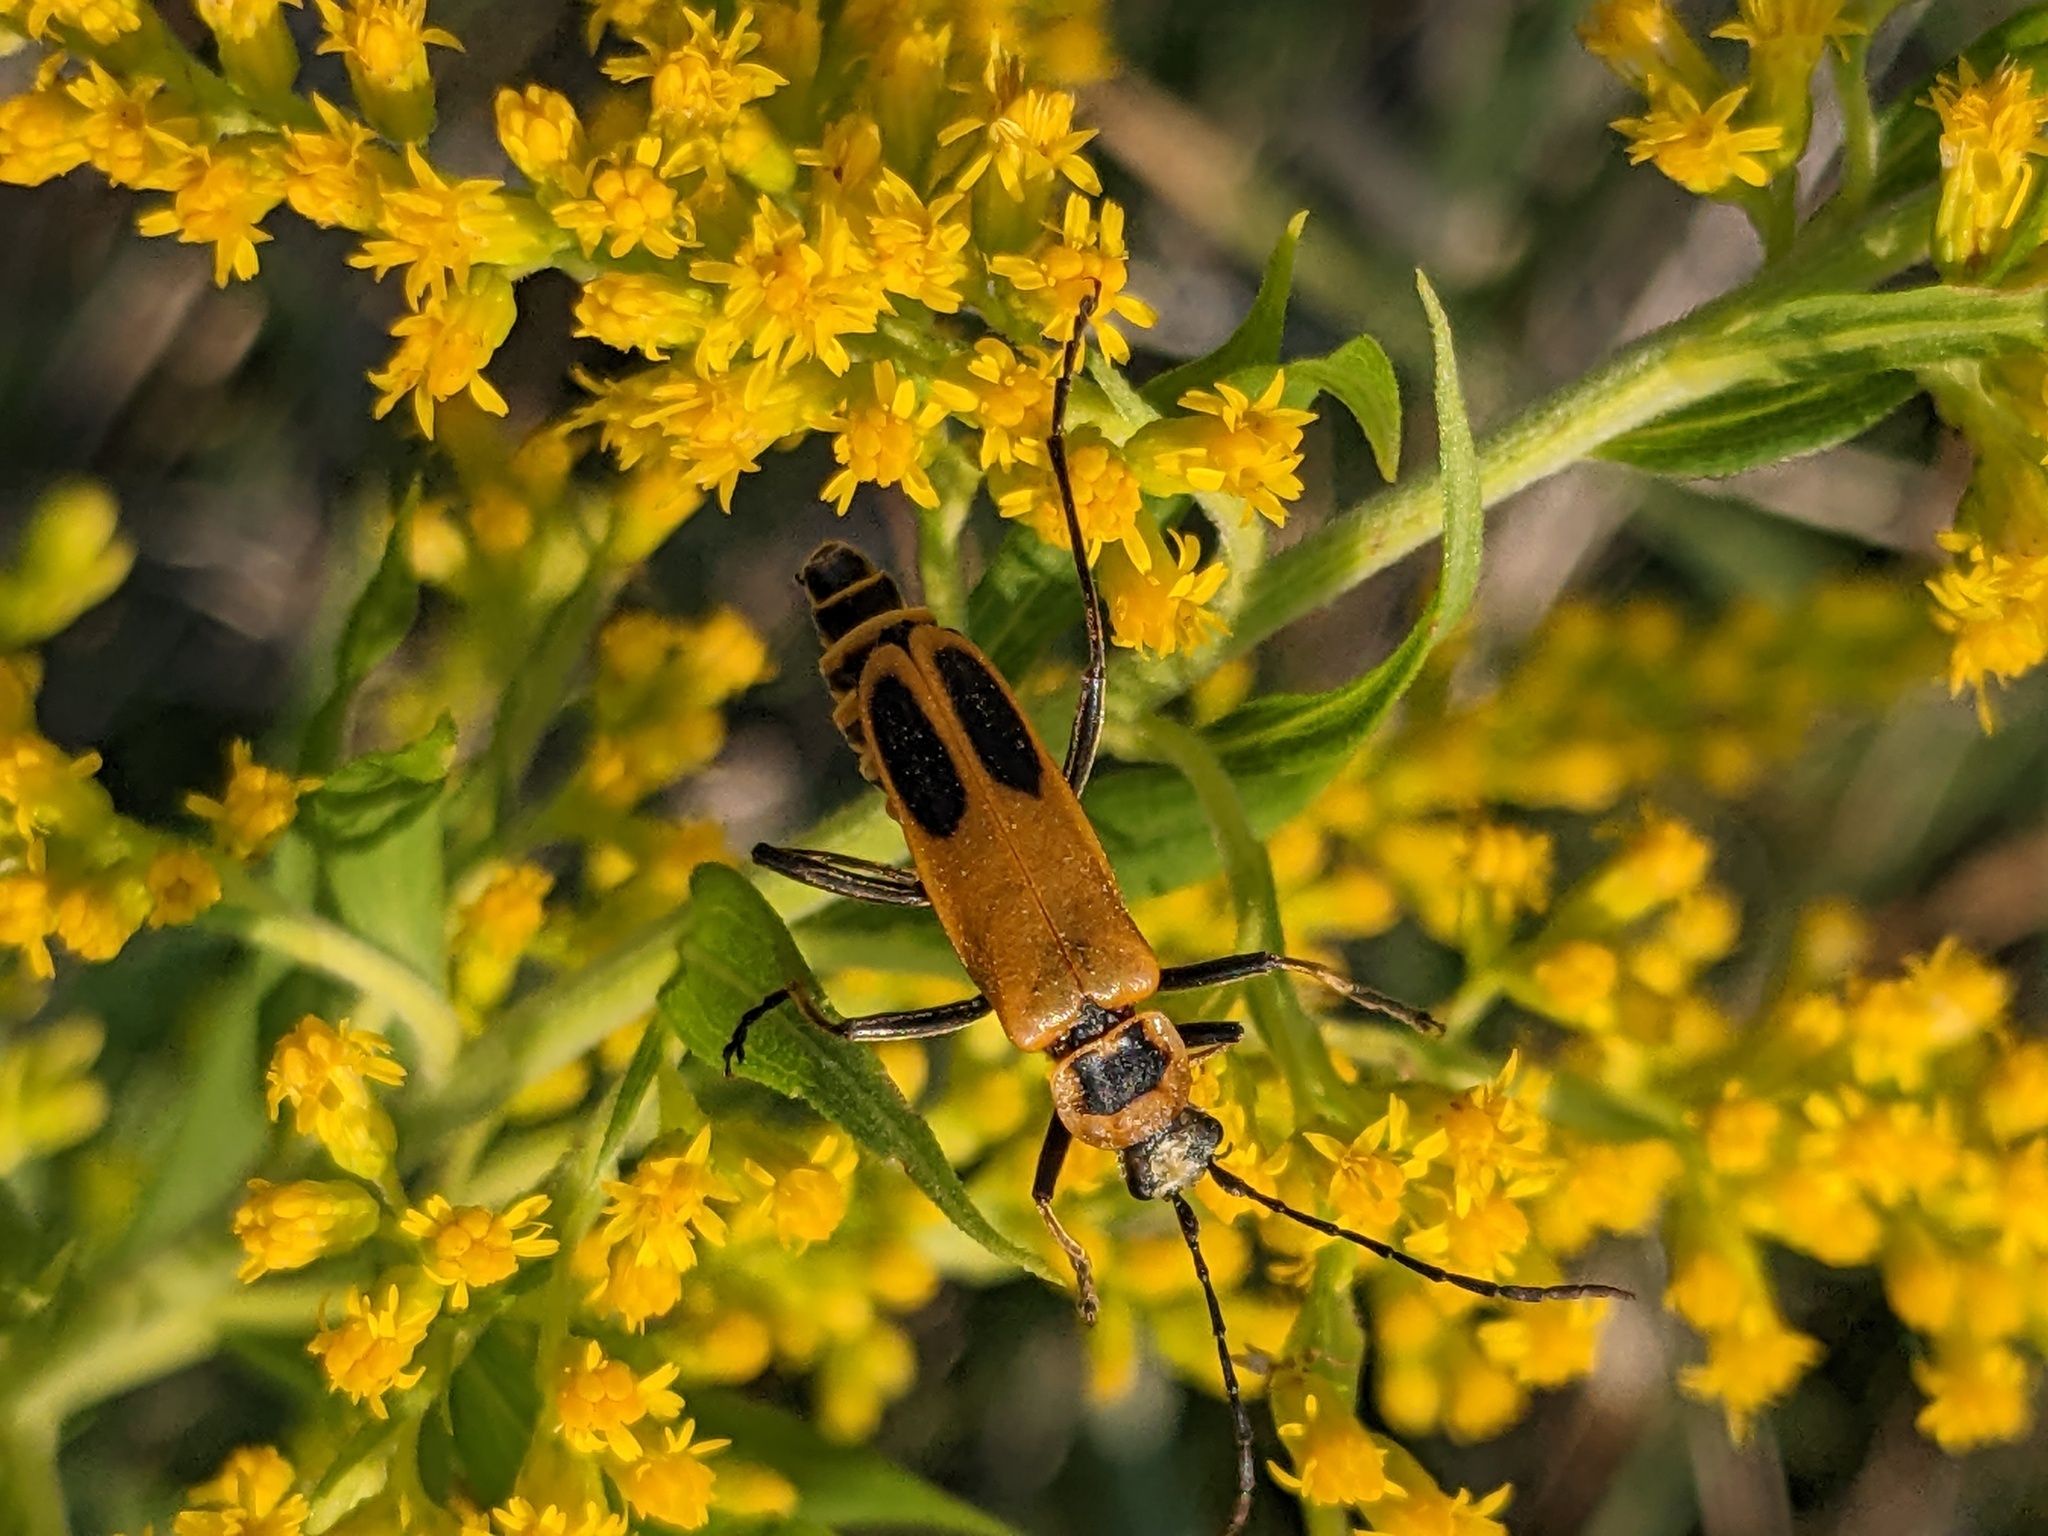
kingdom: Animalia
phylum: Arthropoda
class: Insecta
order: Coleoptera
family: Cantharidae
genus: Chauliognathus
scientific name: Chauliognathus pensylvanicus
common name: Goldenrod soldier beetle
